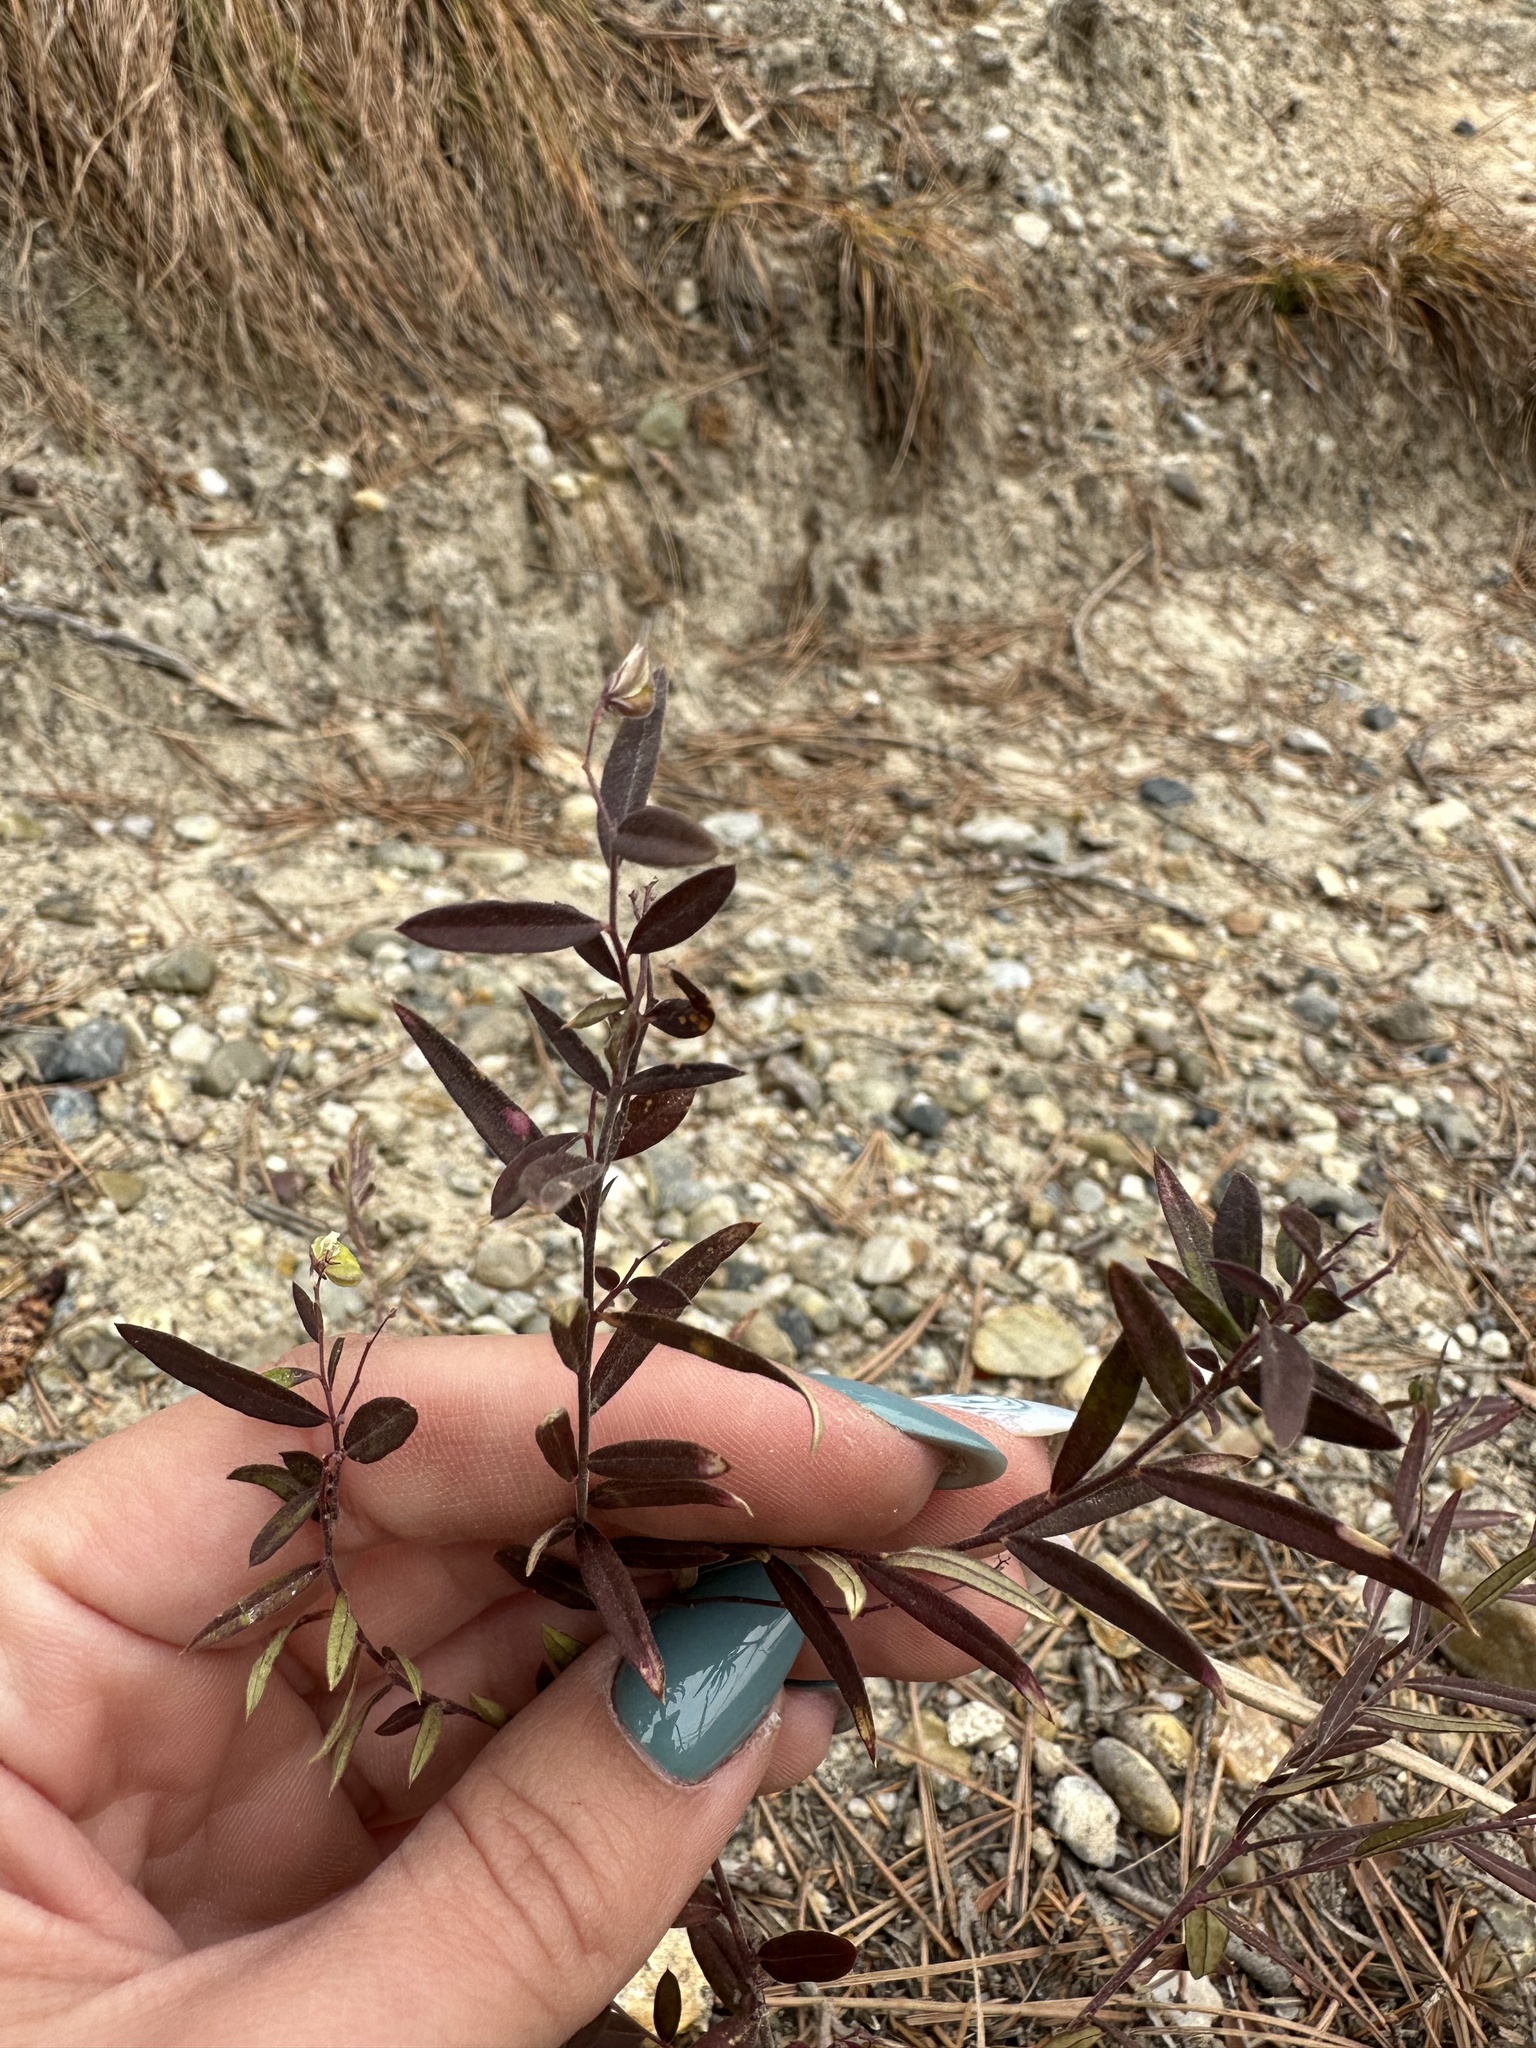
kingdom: Plantae
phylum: Tracheophyta
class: Magnoliopsida
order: Fabales
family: Polygalaceae
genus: Polygala
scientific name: Polygala sibirica
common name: Siberian polygala
